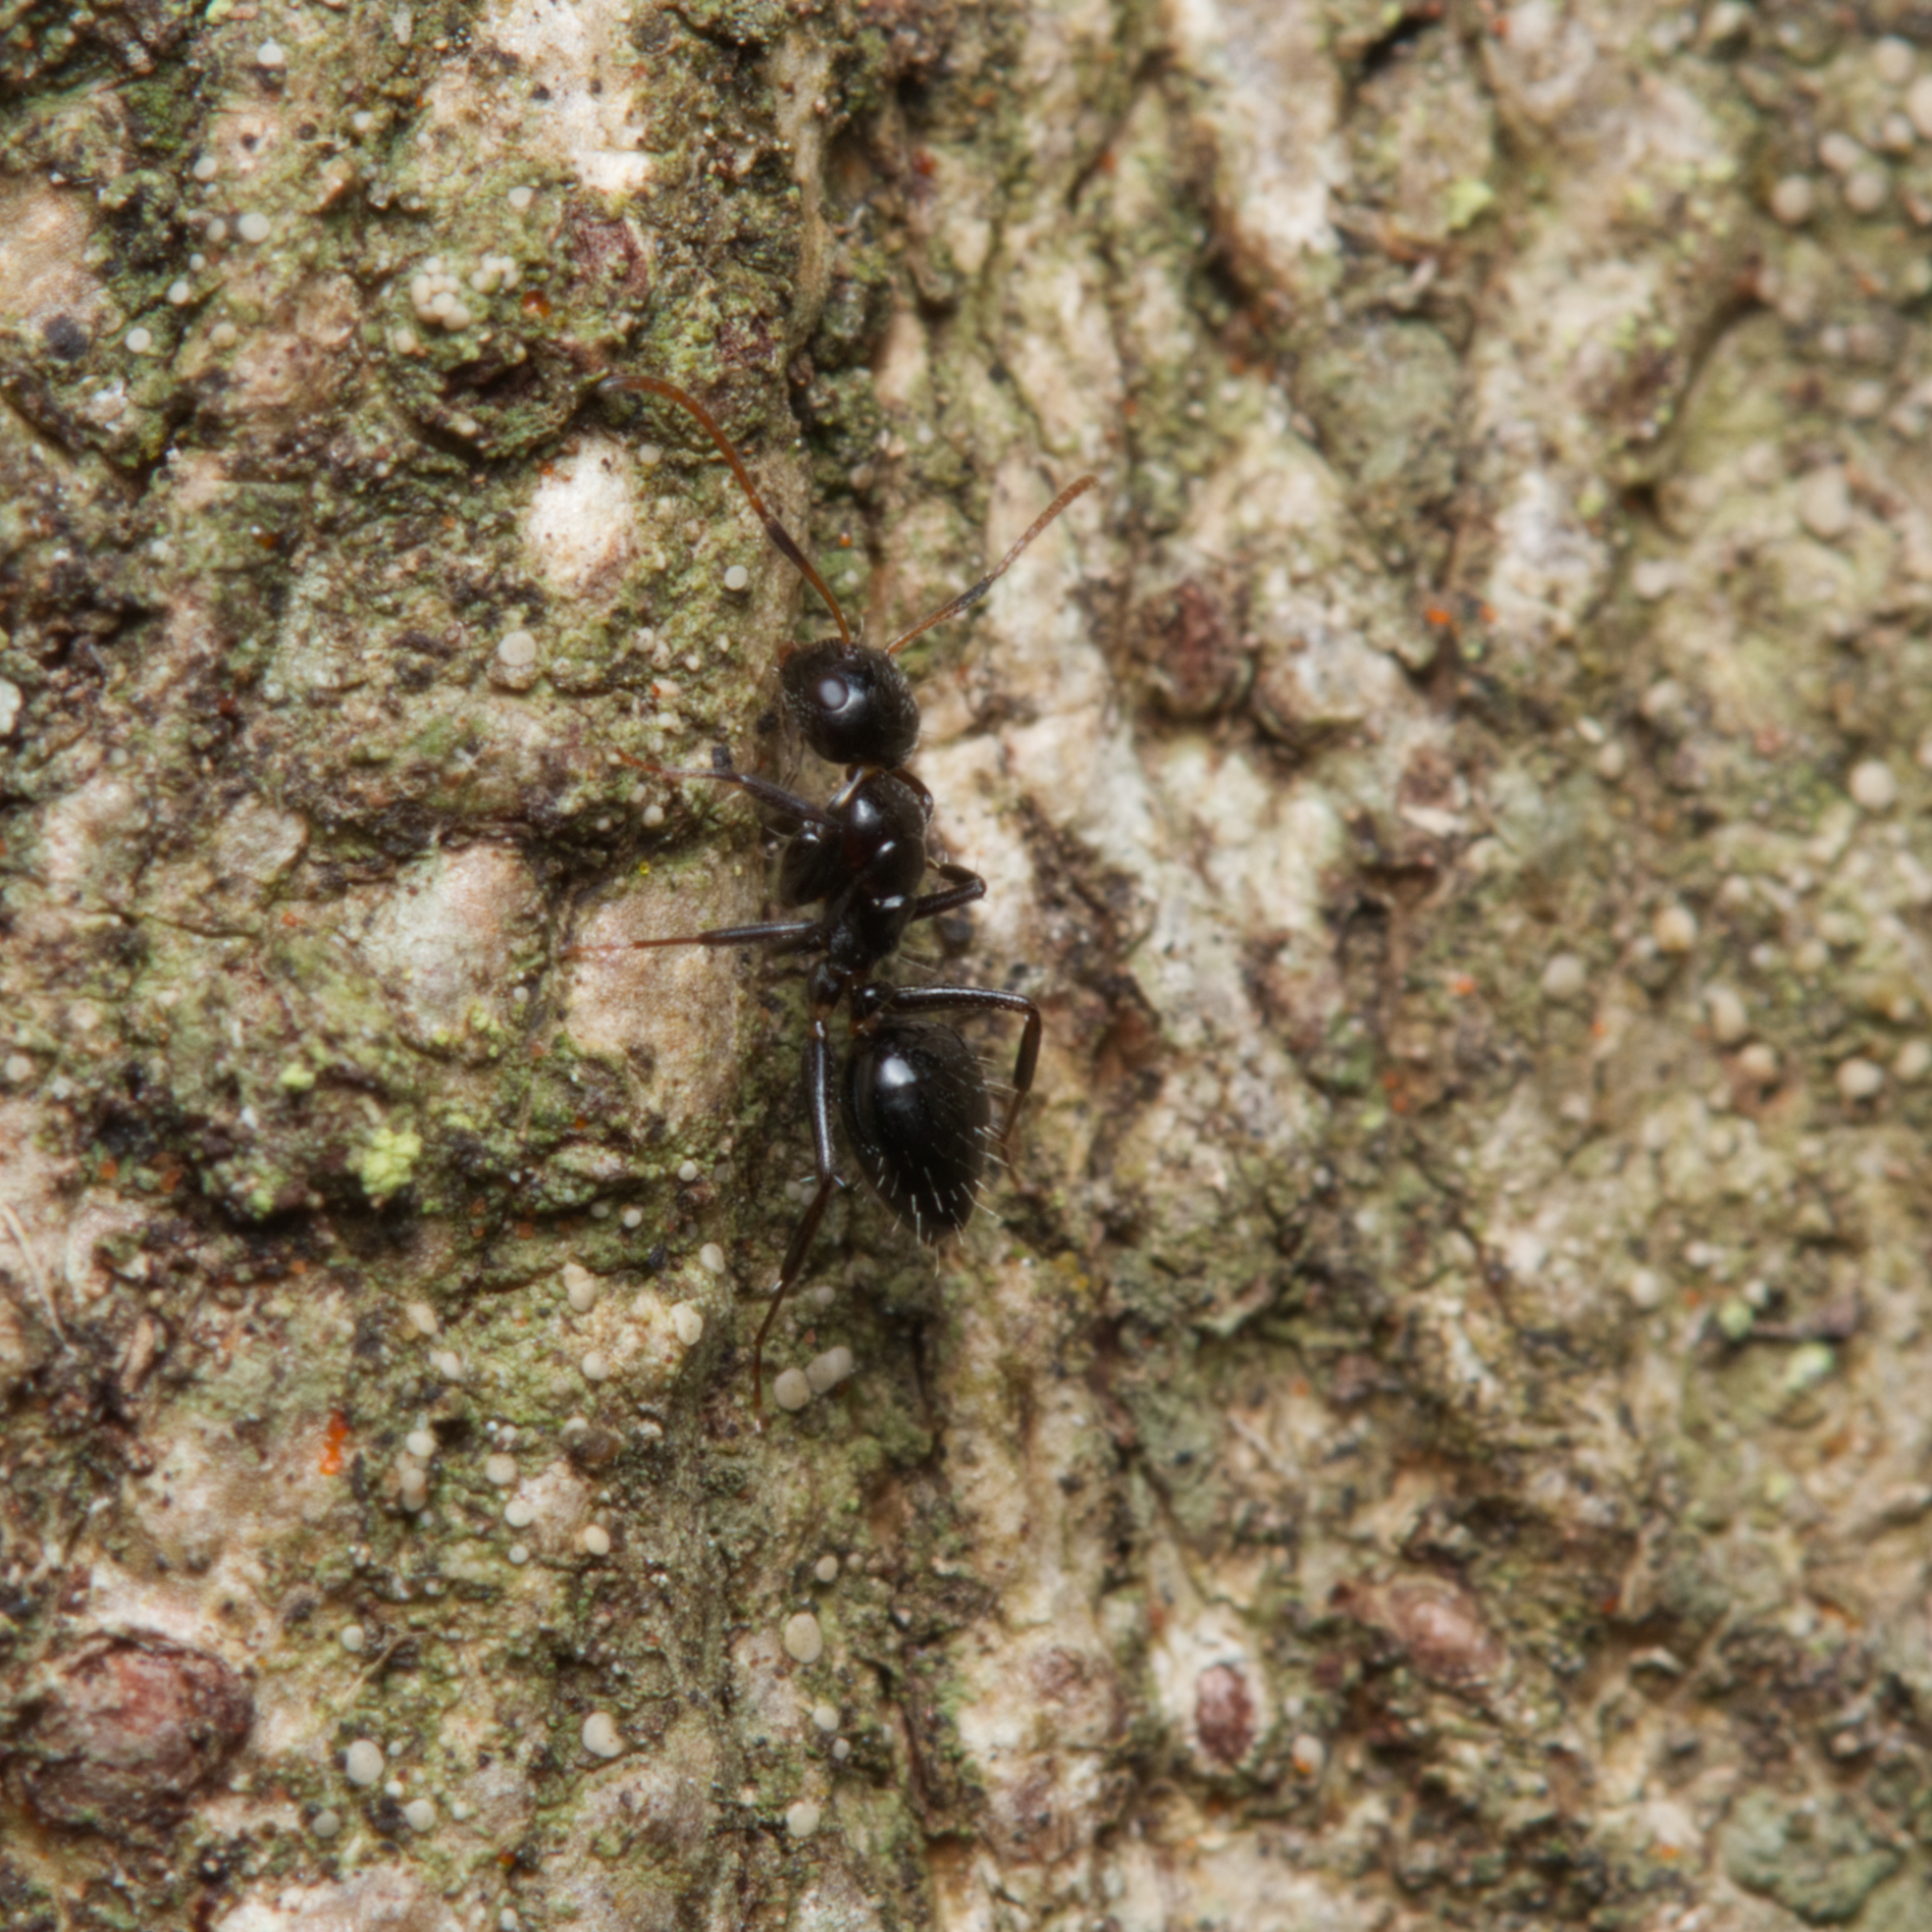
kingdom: Animalia
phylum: Arthropoda
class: Insecta
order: Hymenoptera
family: Formicidae
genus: Camponotus
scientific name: Camponotus mackayensis
